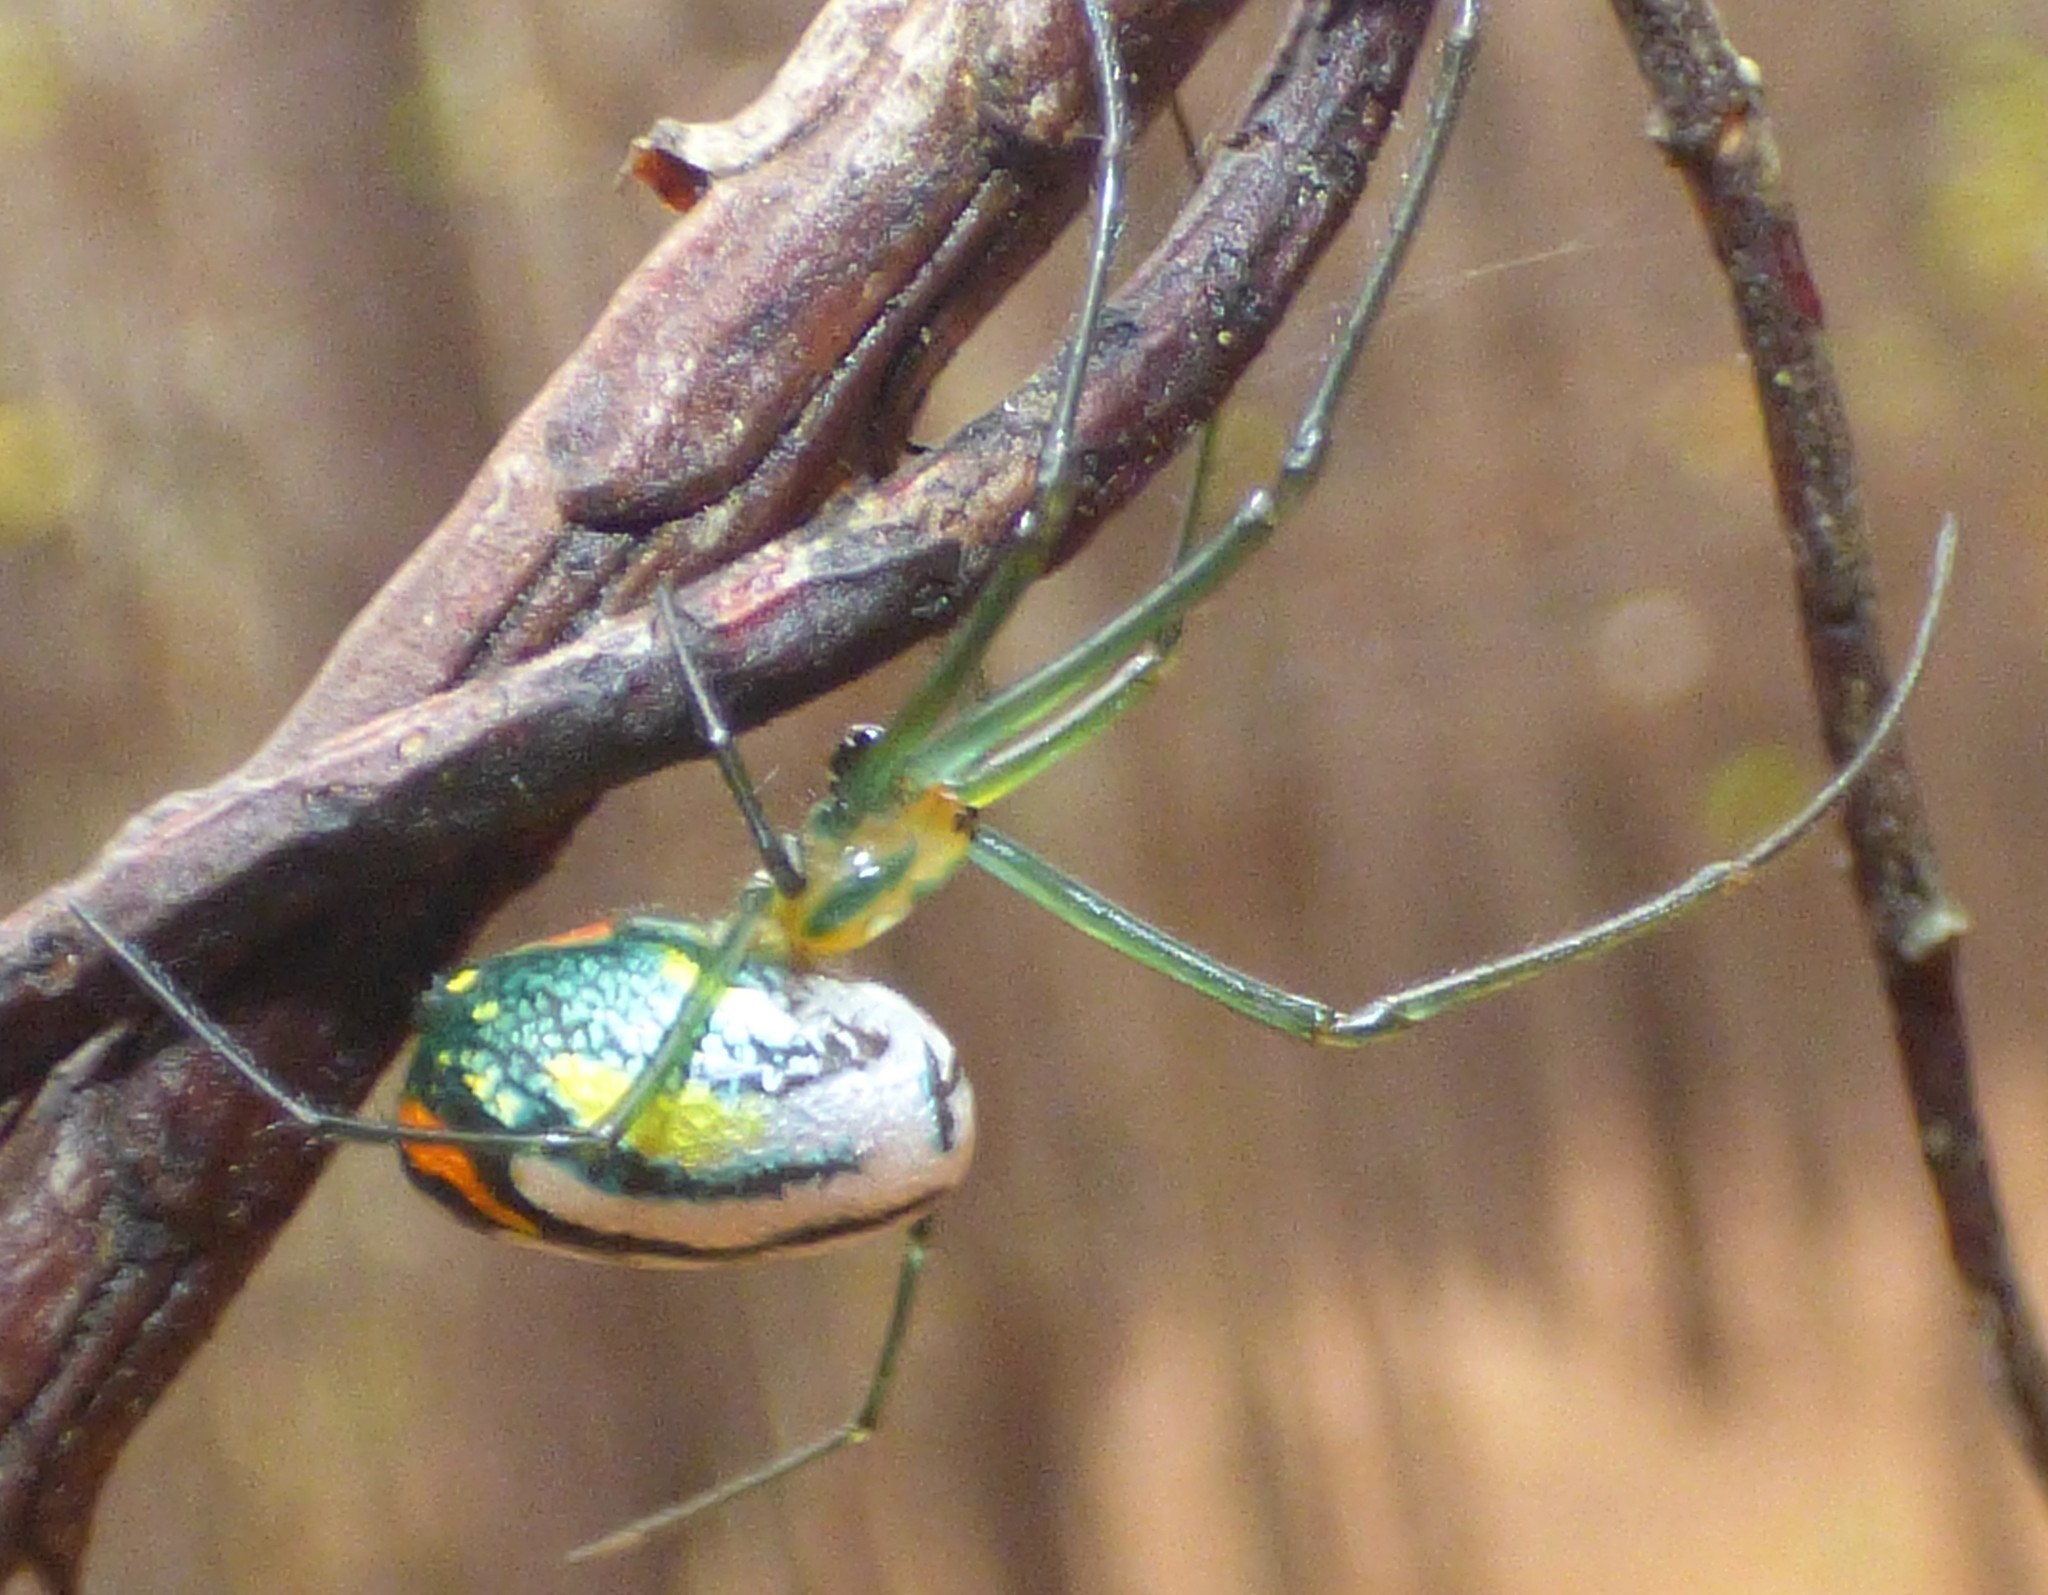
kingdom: Animalia
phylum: Arthropoda
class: Arachnida
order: Araneae
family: Tetragnathidae
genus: Leucauge
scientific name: Leucauge argyrobapta
